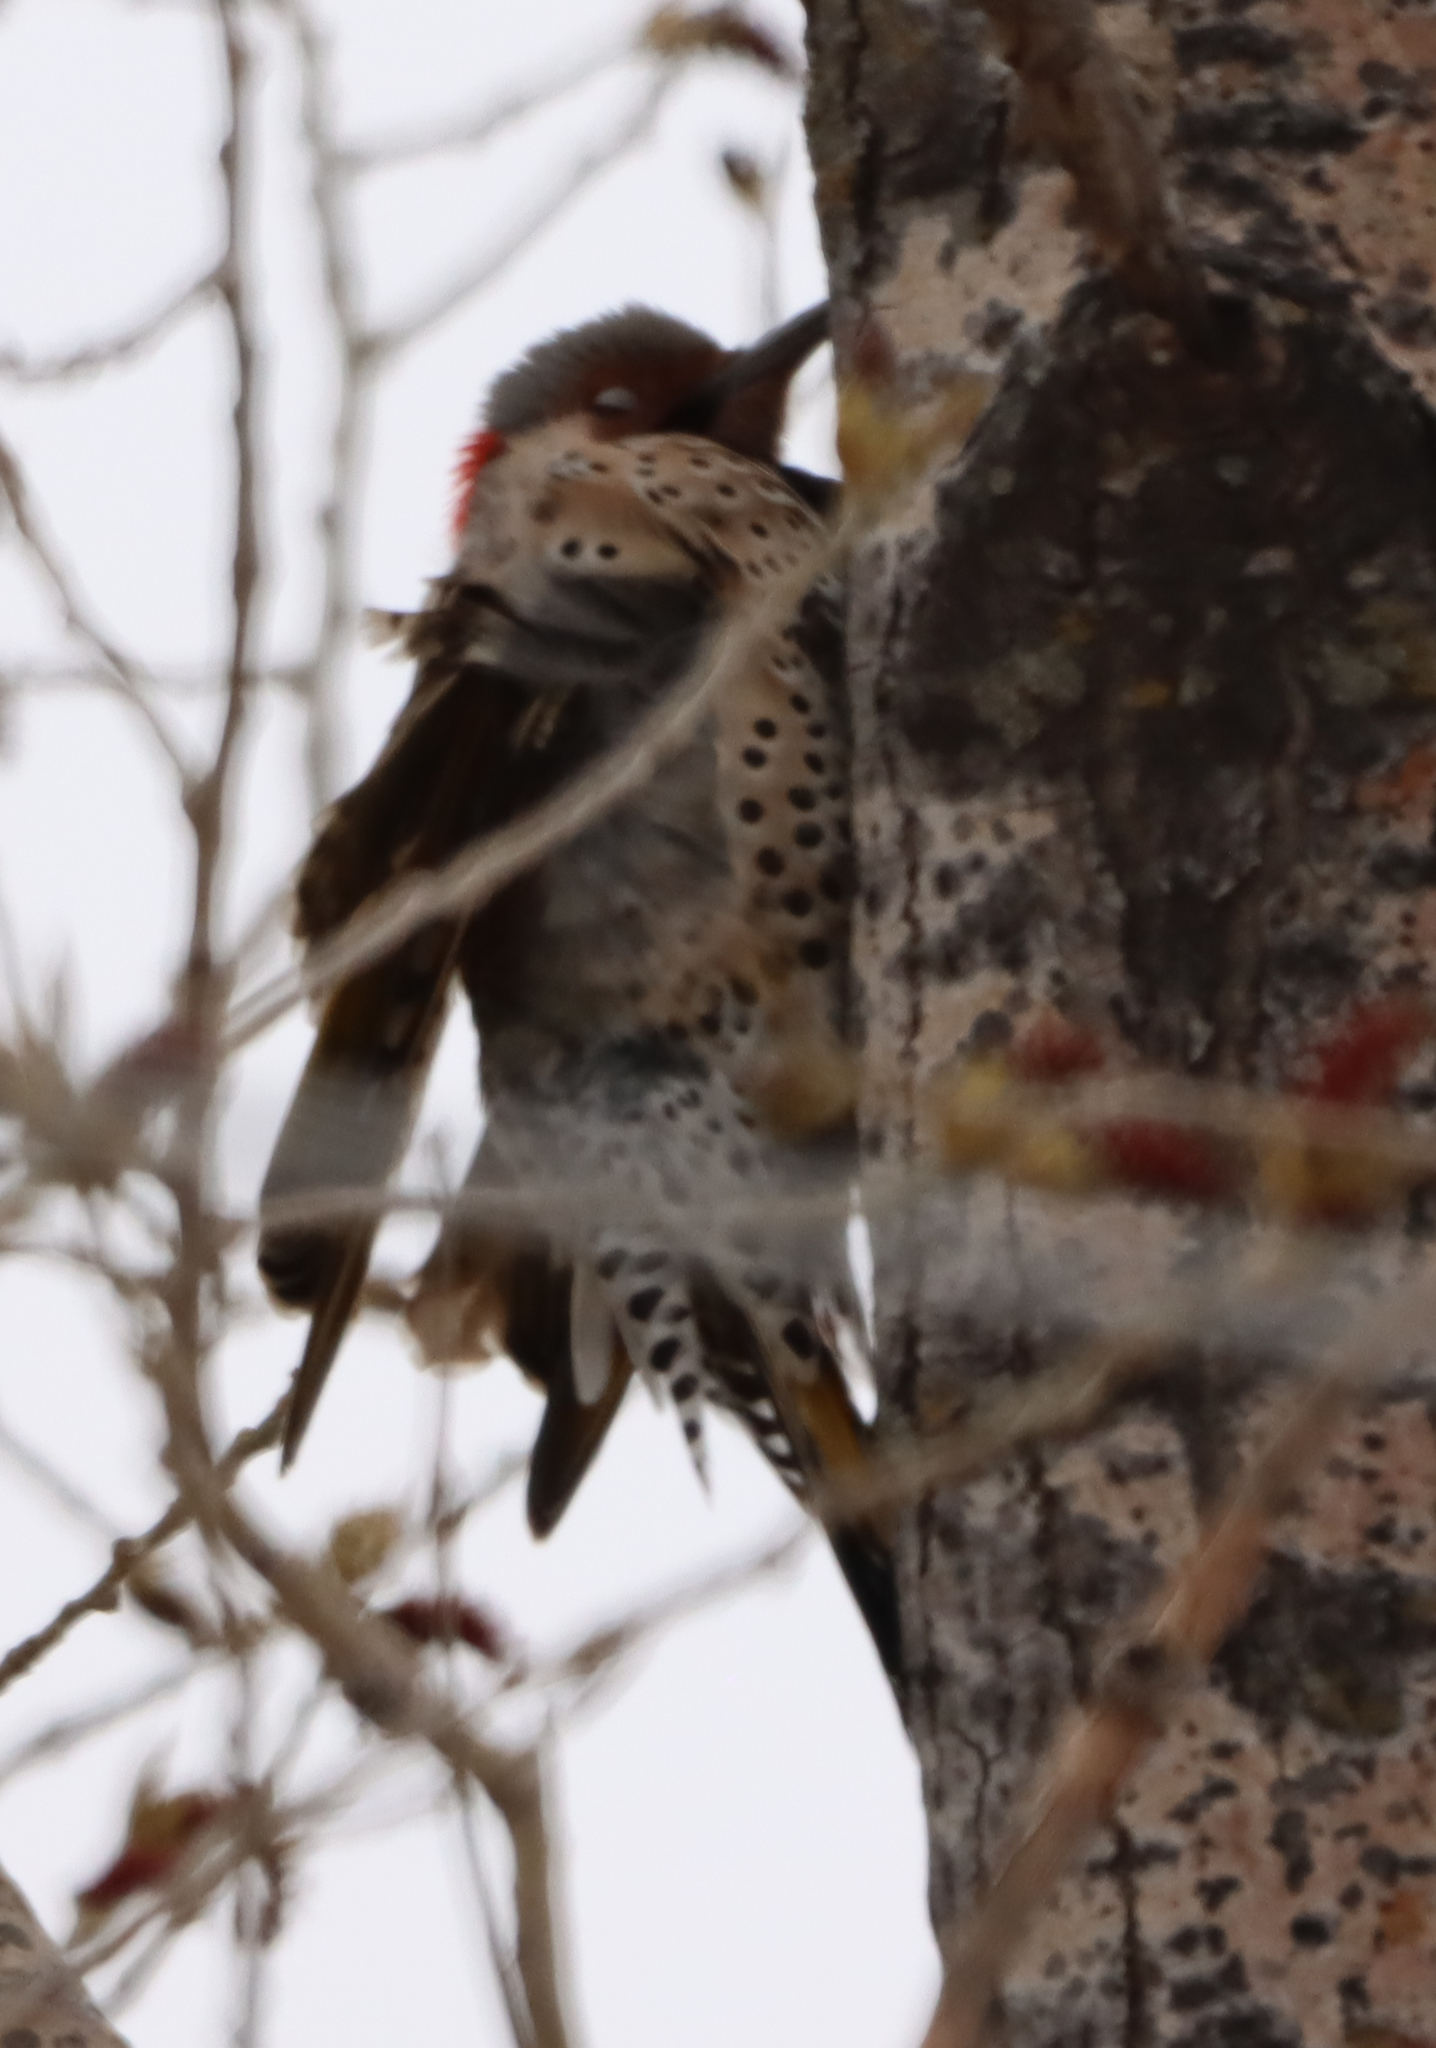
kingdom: Animalia
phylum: Chordata
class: Aves
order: Piciformes
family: Picidae
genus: Colaptes
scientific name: Colaptes auratus
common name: Northern flicker
